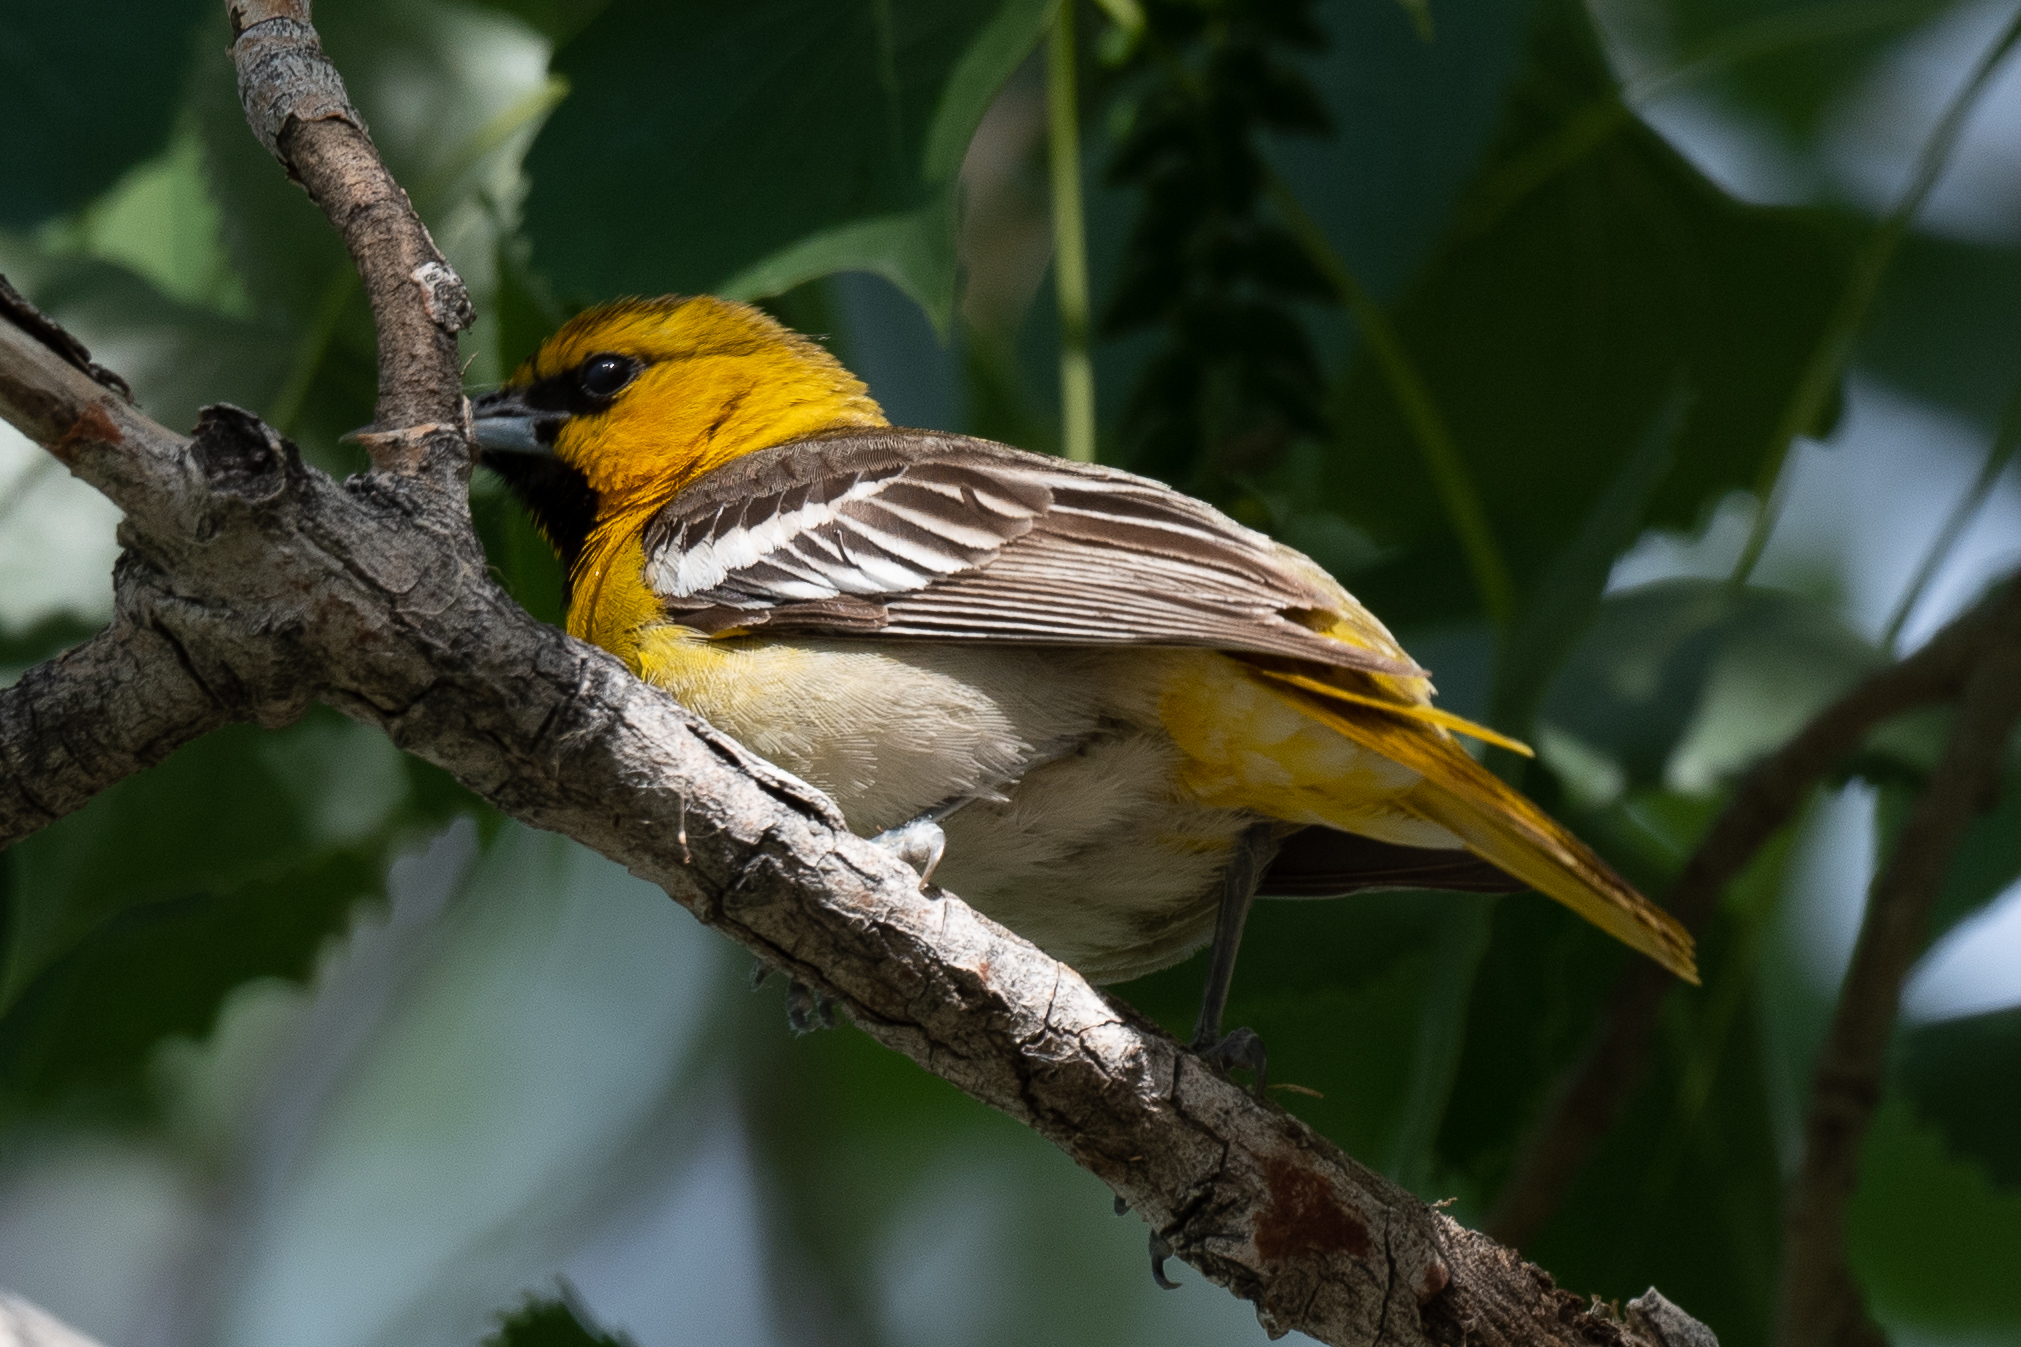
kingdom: Animalia
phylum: Chordata
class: Aves
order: Passeriformes
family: Icteridae
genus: Icterus
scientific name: Icterus bullockii
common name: Bullock's oriole
